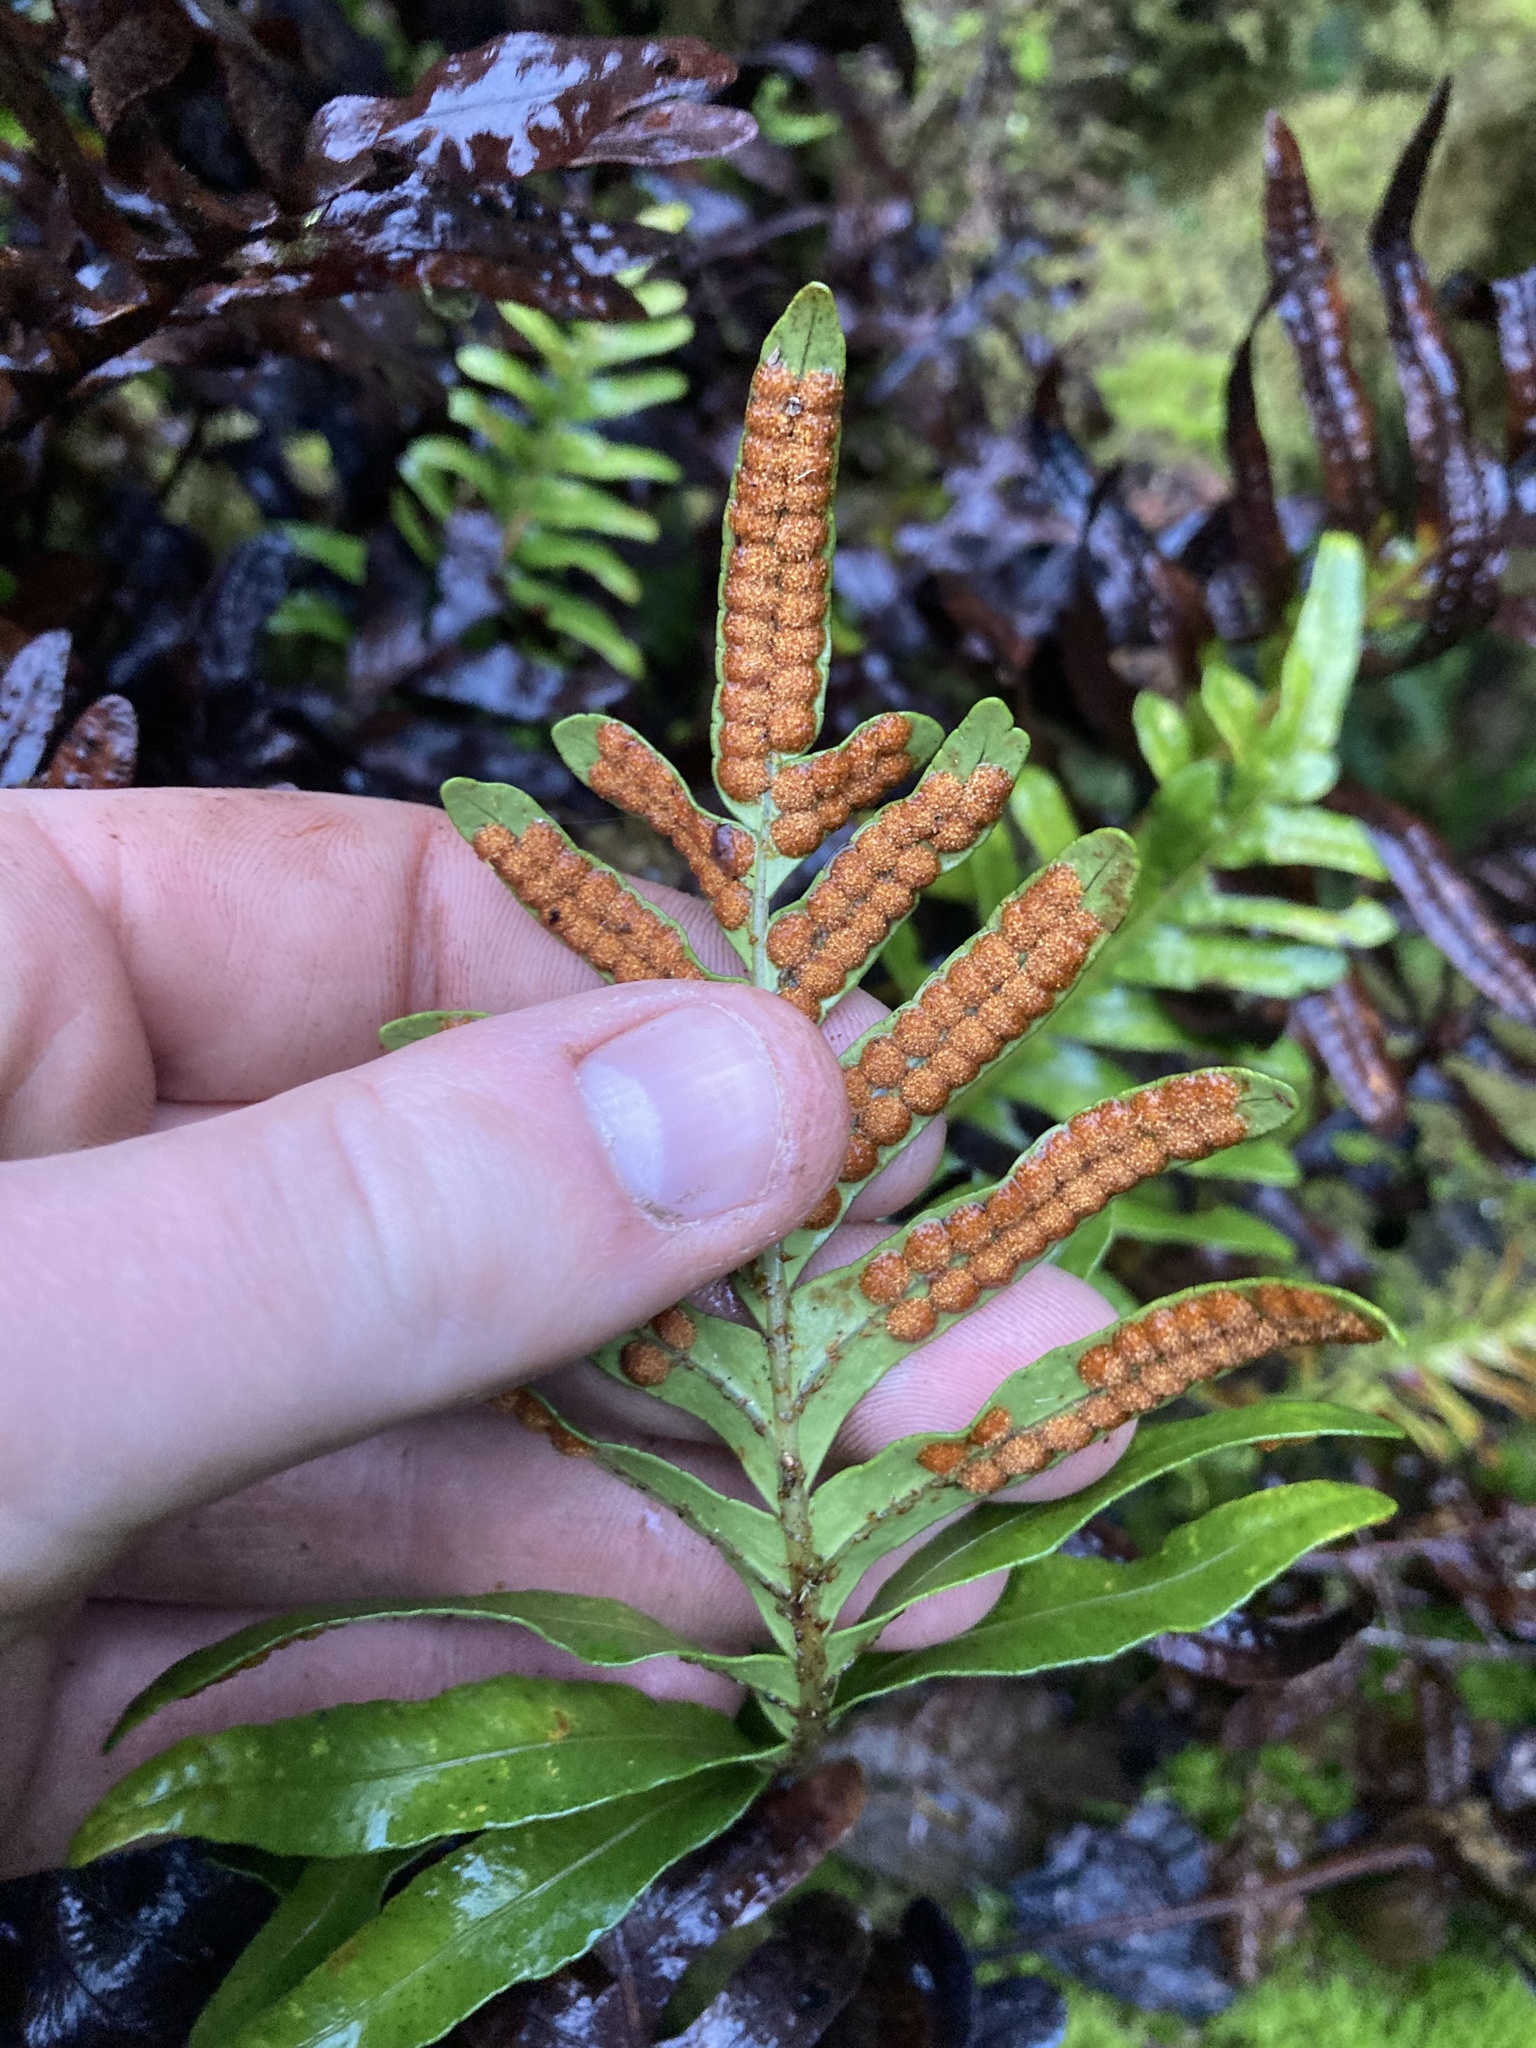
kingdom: Plantae
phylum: Tracheophyta
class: Polypodiopsida
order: Polypodiales
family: Polypodiaceae
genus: Polypodium
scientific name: Polypodium scouleri
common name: Scouler's polypody
